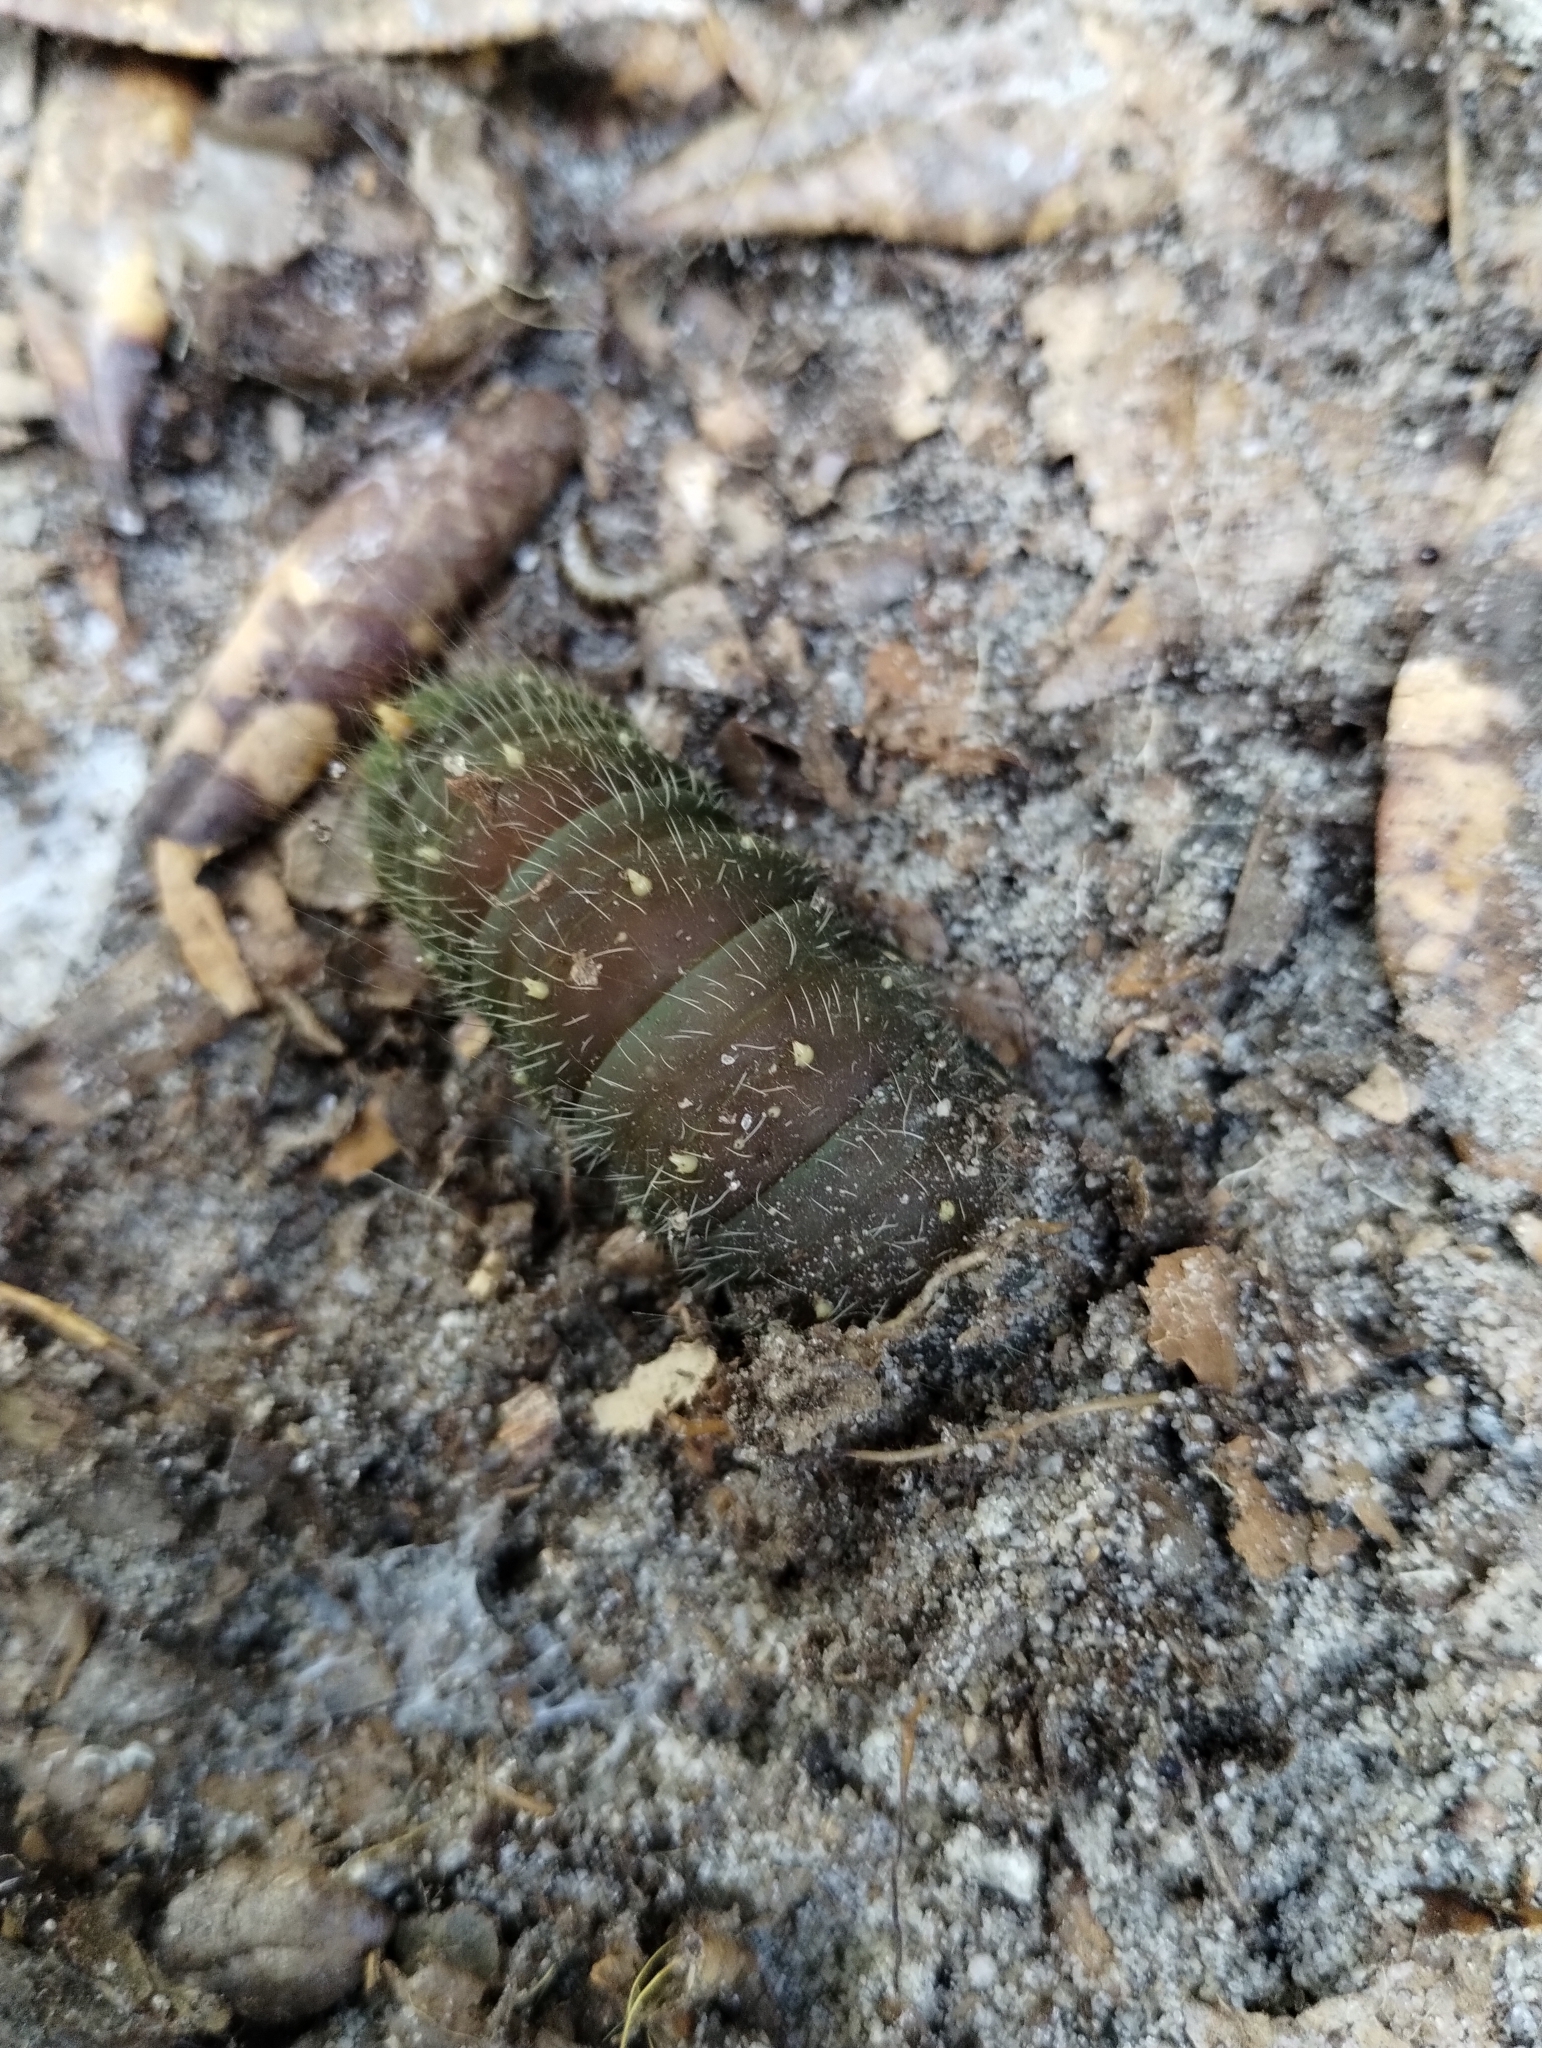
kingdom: Animalia
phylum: Arthropoda
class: Insecta
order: Lepidoptera
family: Saturniidae
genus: Eacles
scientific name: Eacles imperialis
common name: Imperial moth
